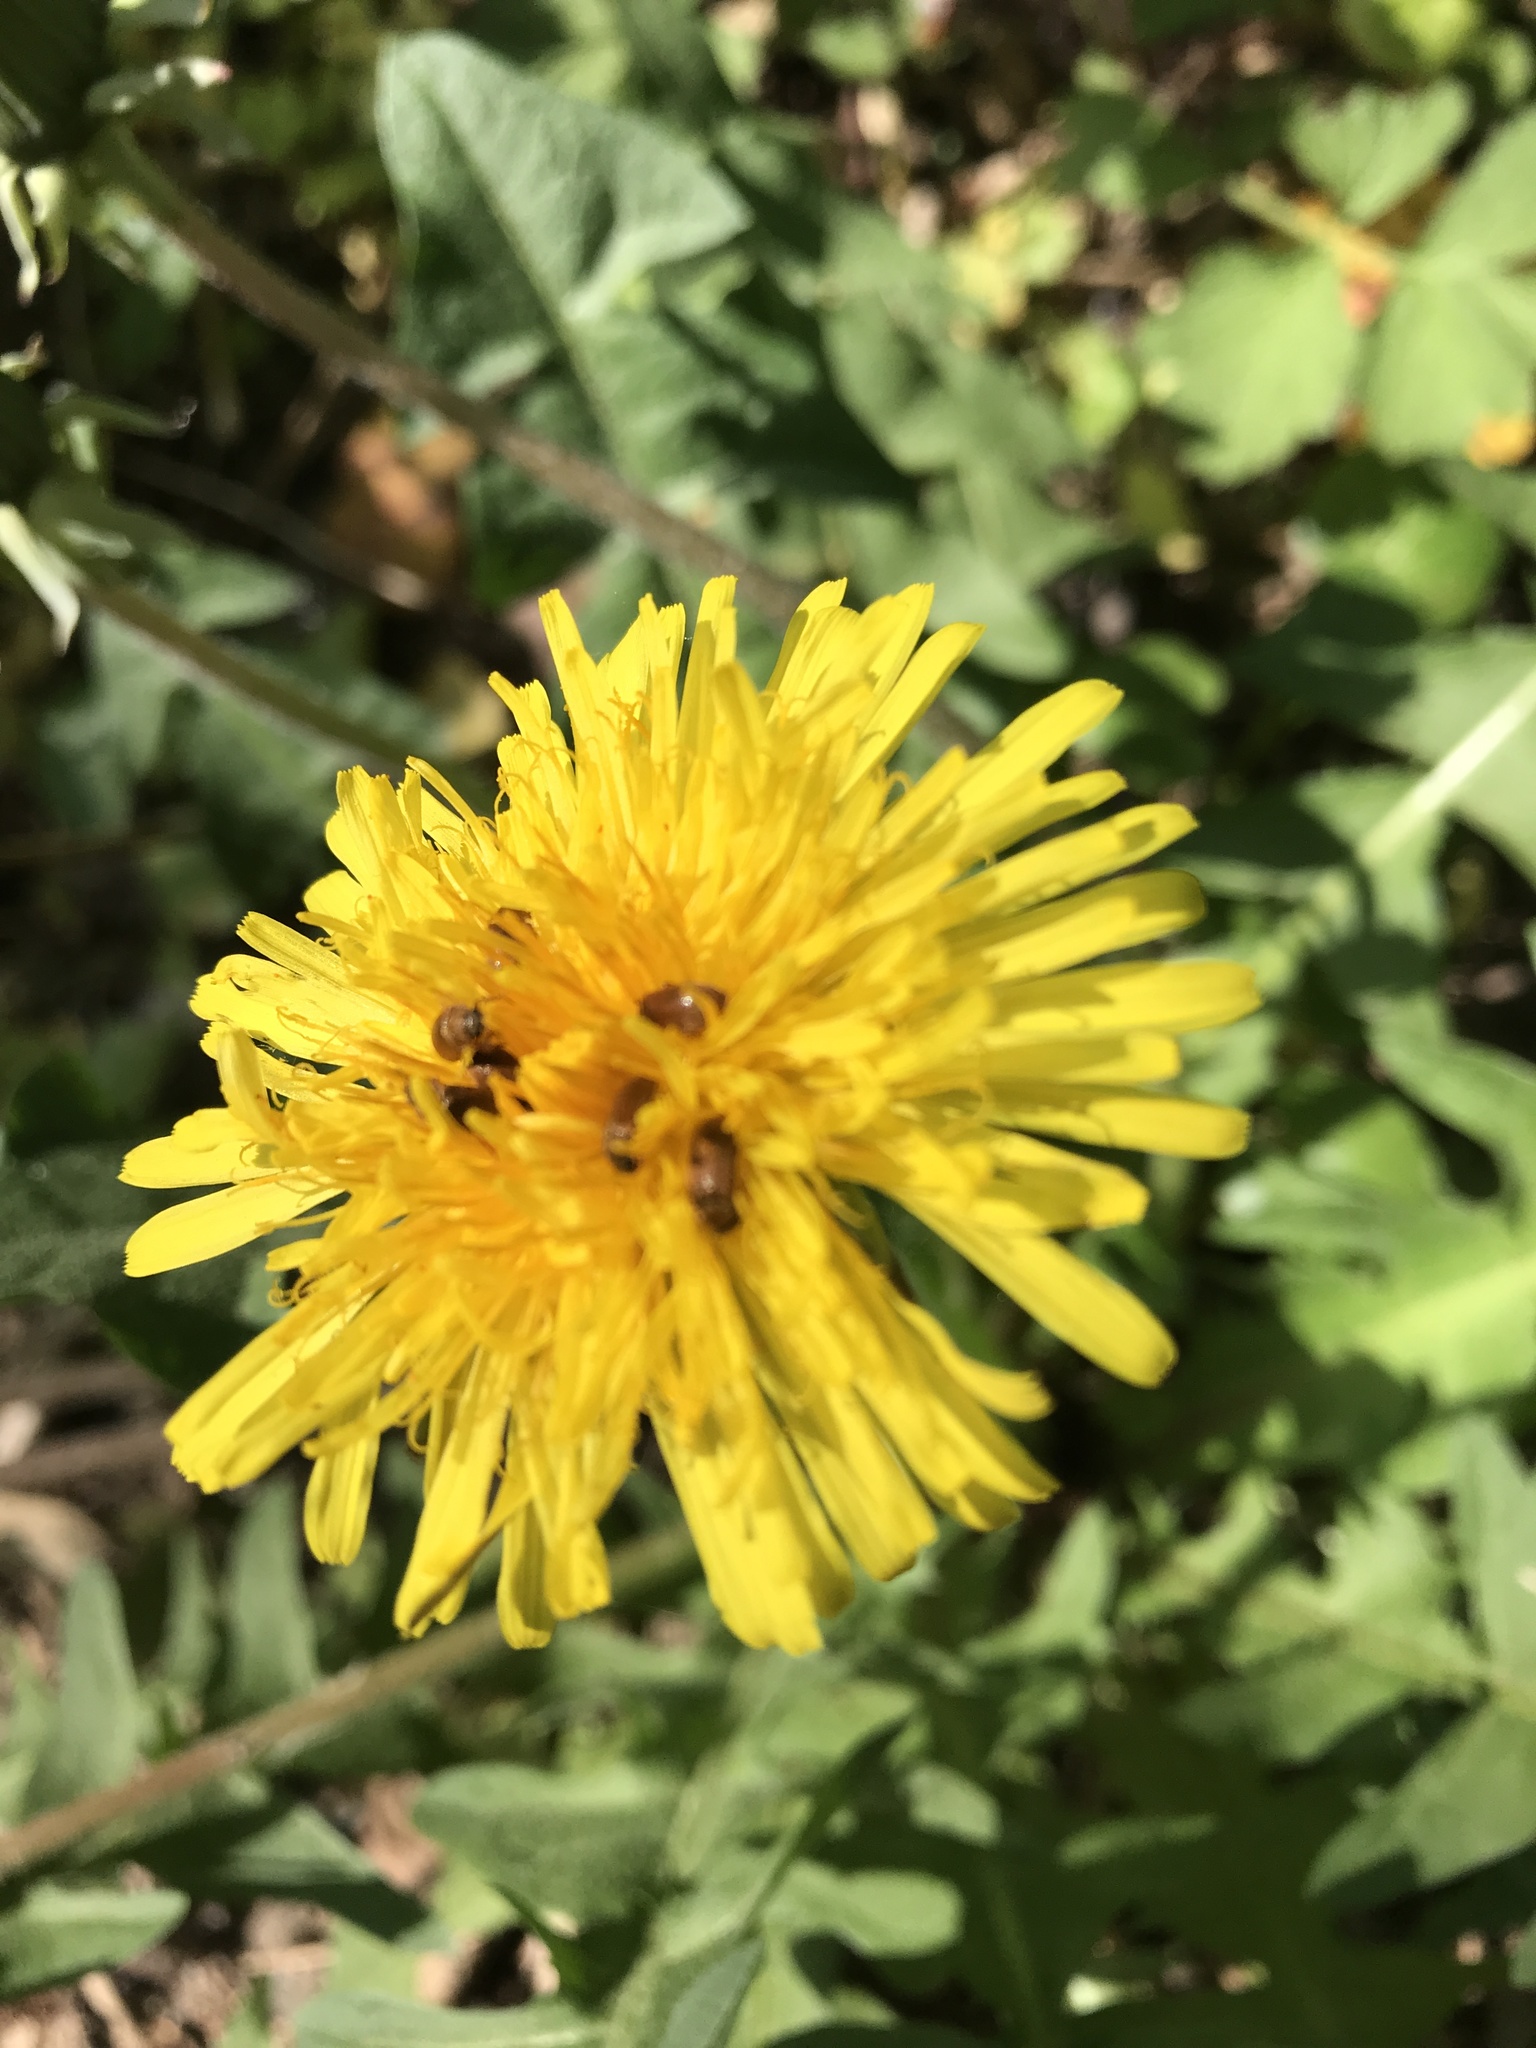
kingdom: Animalia
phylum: Arthropoda
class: Insecta
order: Coleoptera
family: Byturidae
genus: Byturus
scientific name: Byturus tomentosus
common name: Beetle
